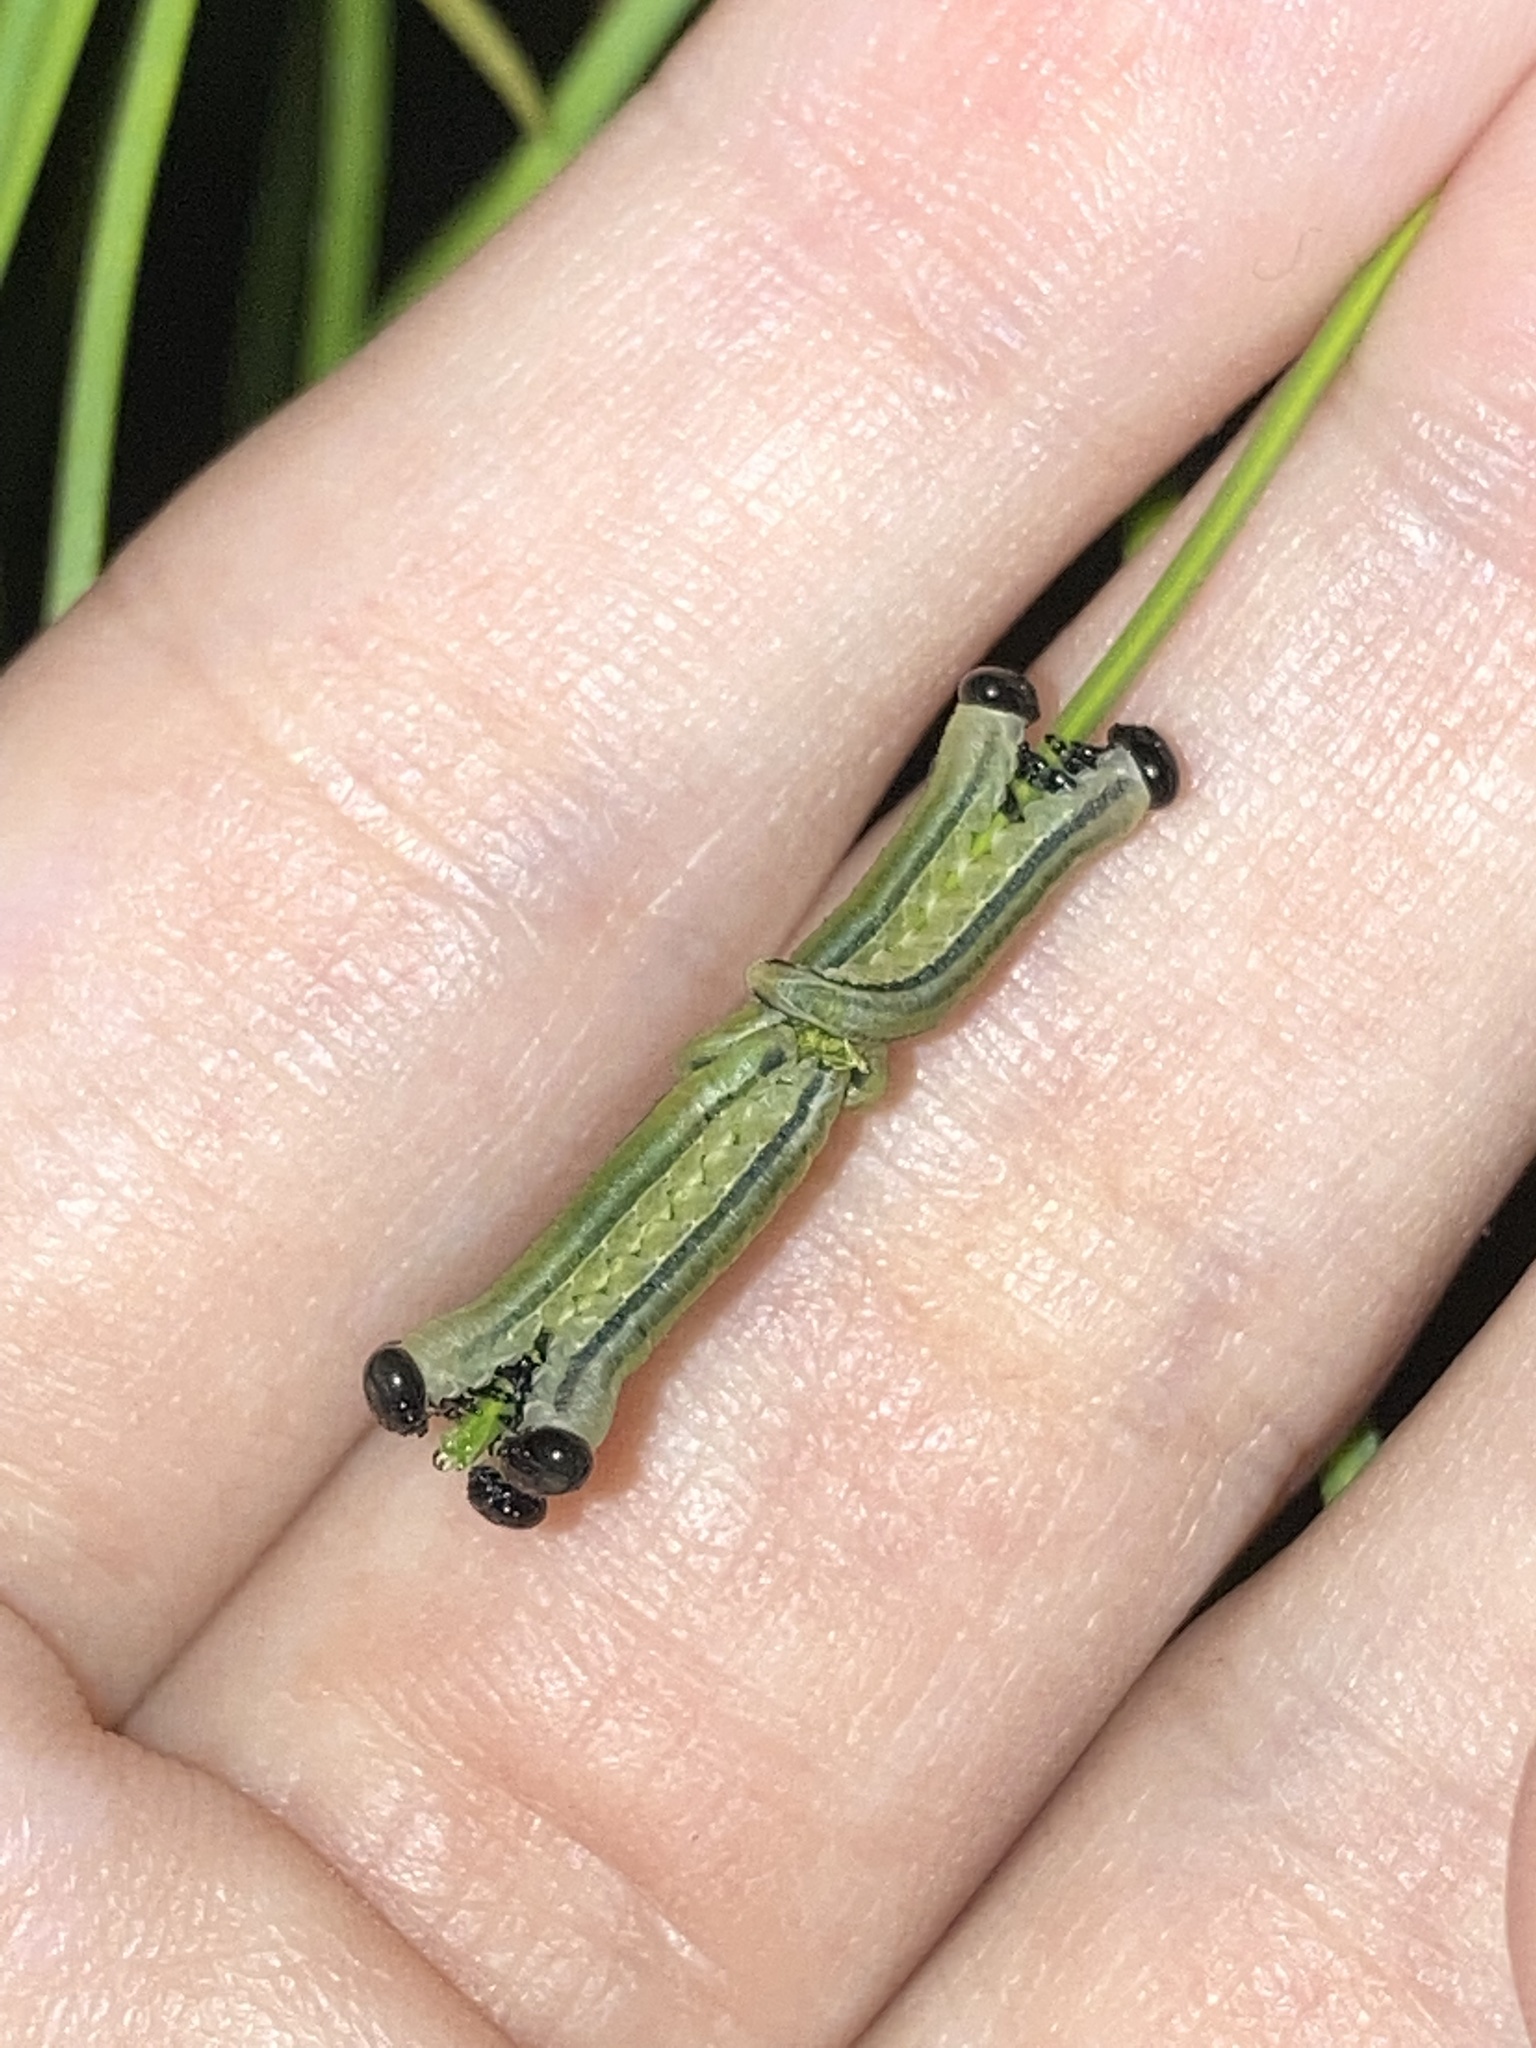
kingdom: Animalia
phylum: Arthropoda
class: Insecta
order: Hymenoptera
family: Diprionidae
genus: Neodiprion
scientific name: Neodiprion merkeli
